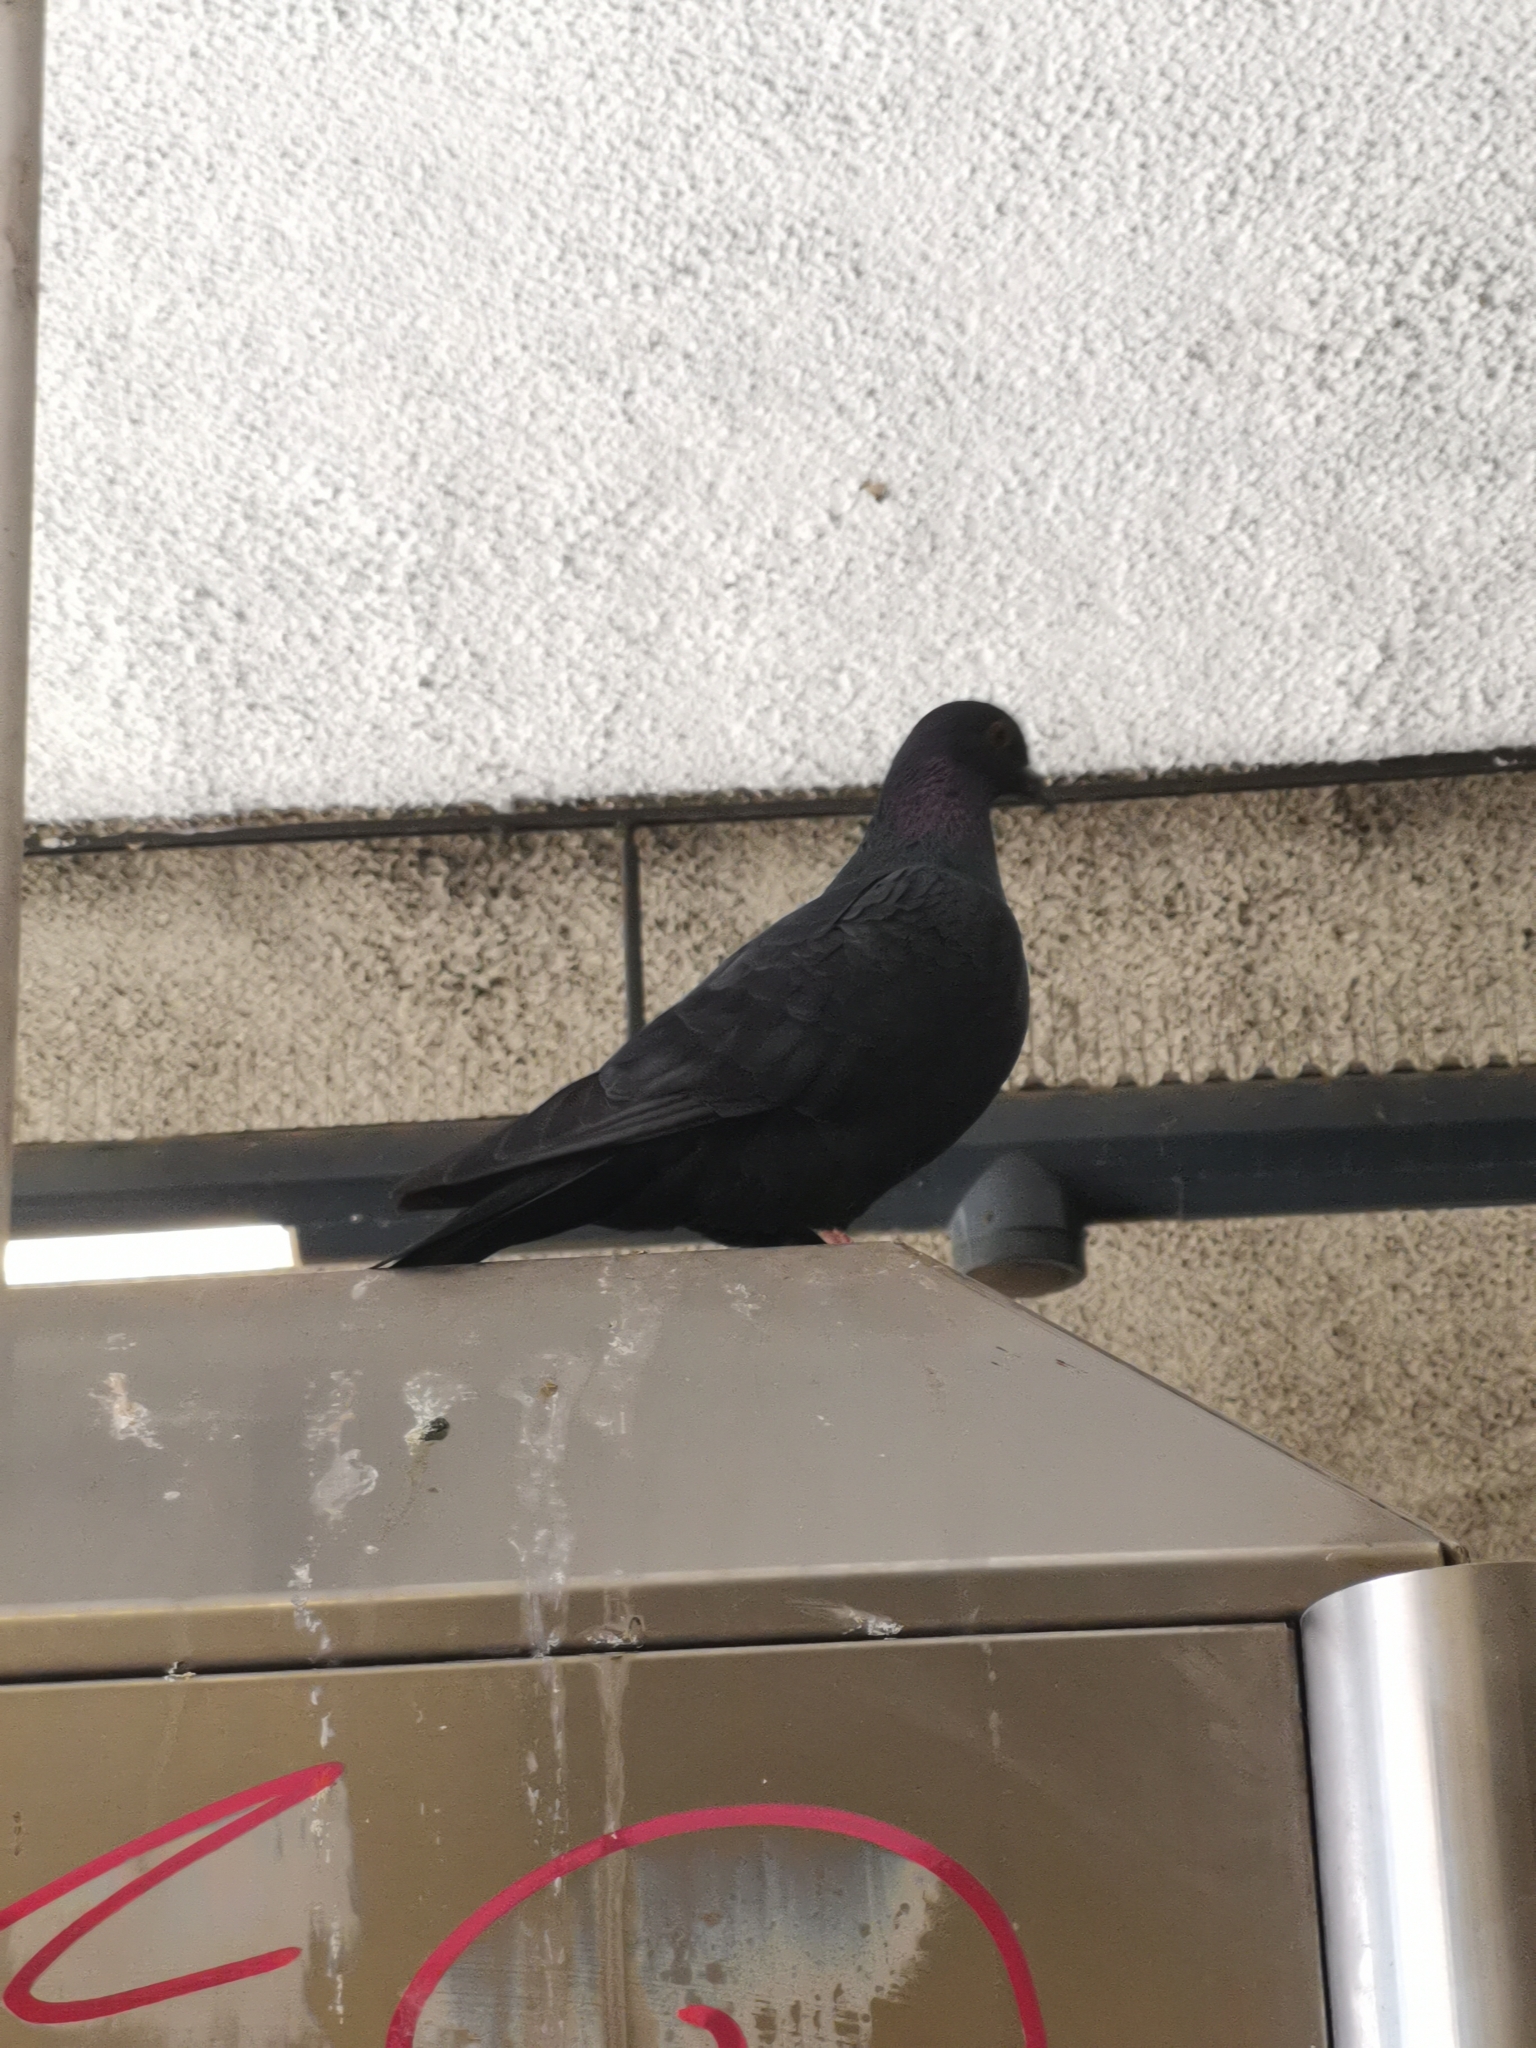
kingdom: Animalia
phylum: Chordata
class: Aves
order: Columbiformes
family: Columbidae
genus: Columba
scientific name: Columba livia
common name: Rock pigeon
